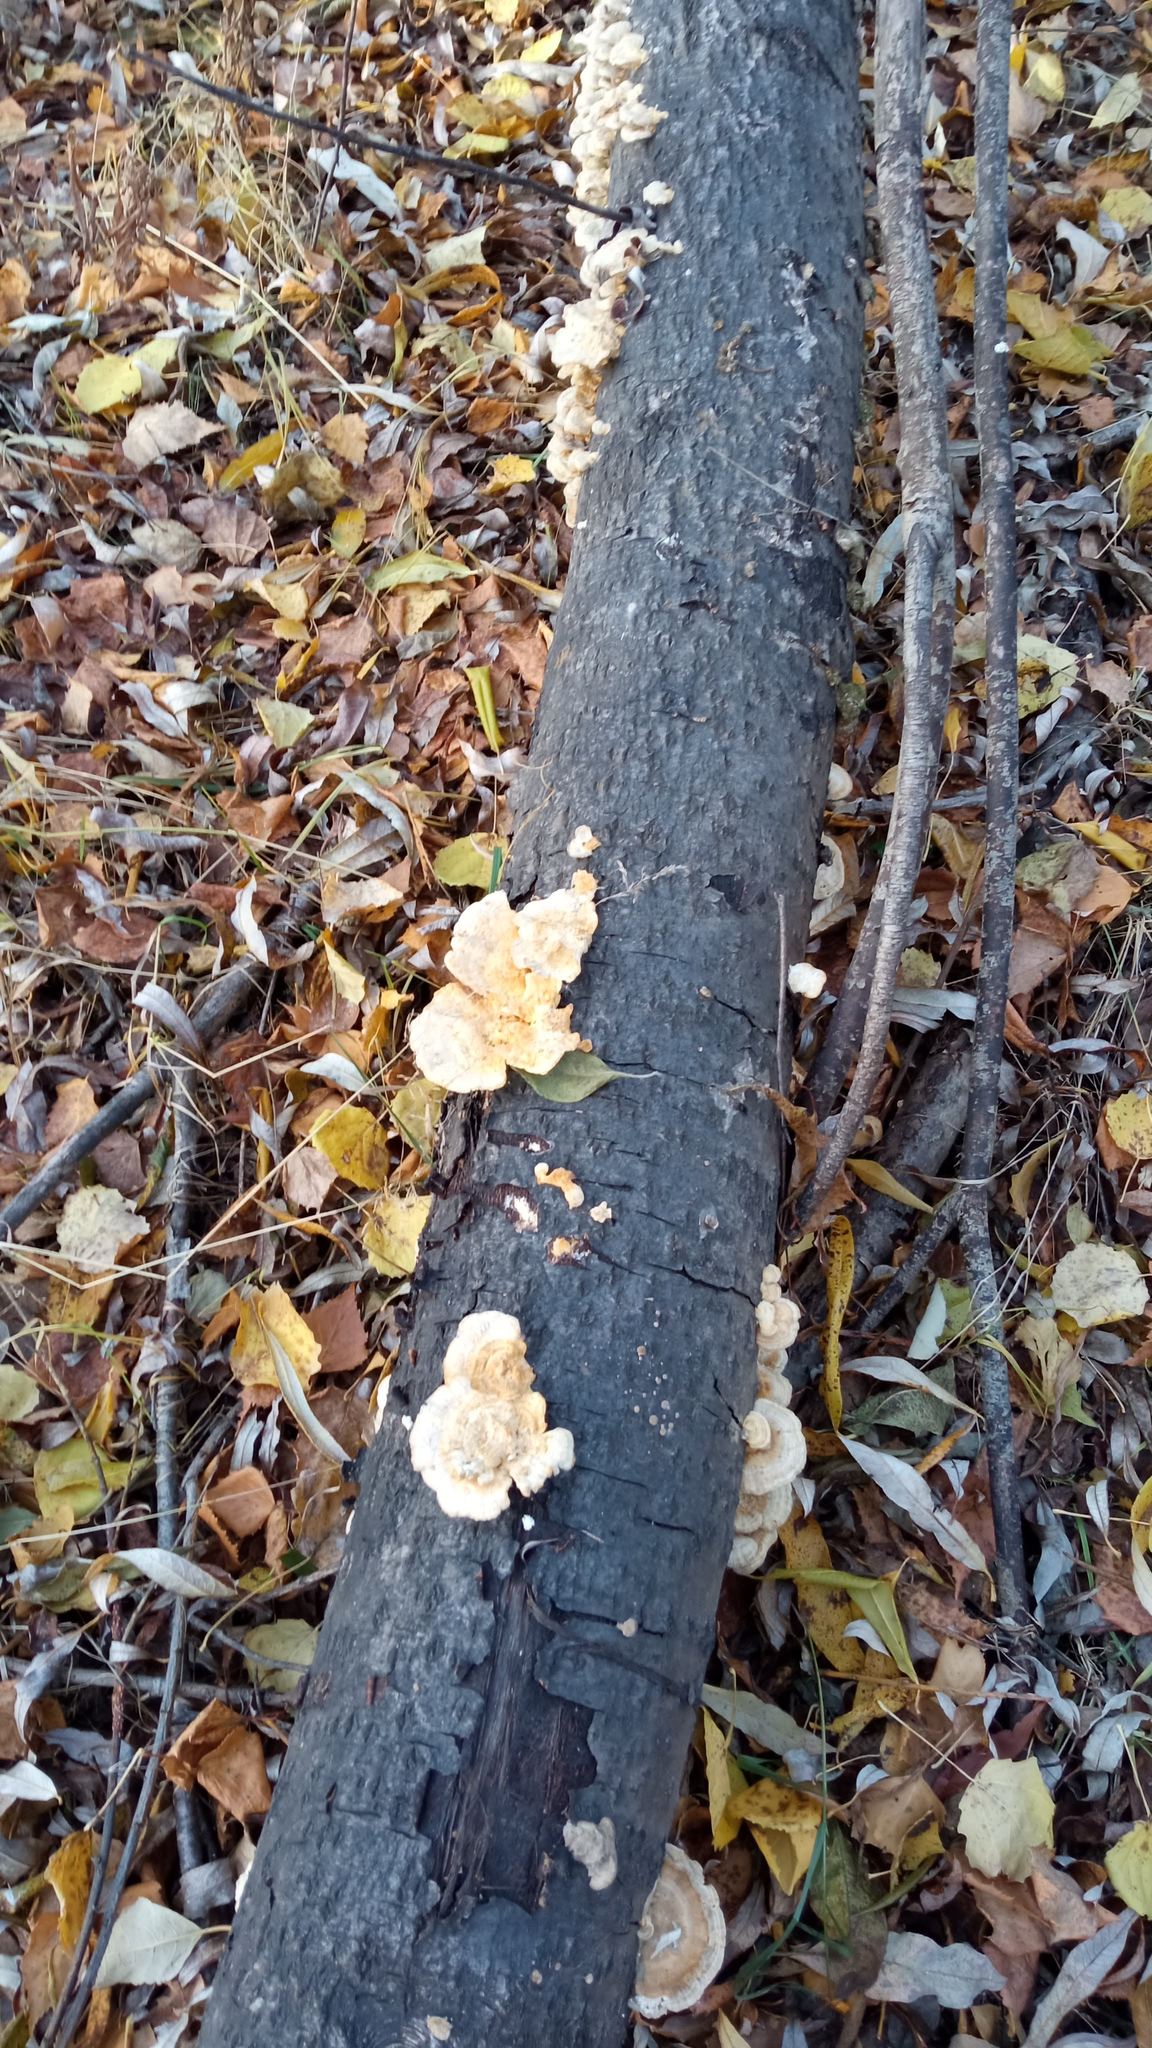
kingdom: Fungi
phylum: Basidiomycota
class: Agaricomycetes
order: Polyporales
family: Polyporaceae
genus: Trametes
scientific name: Trametes ochracea
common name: Ochre bracket
